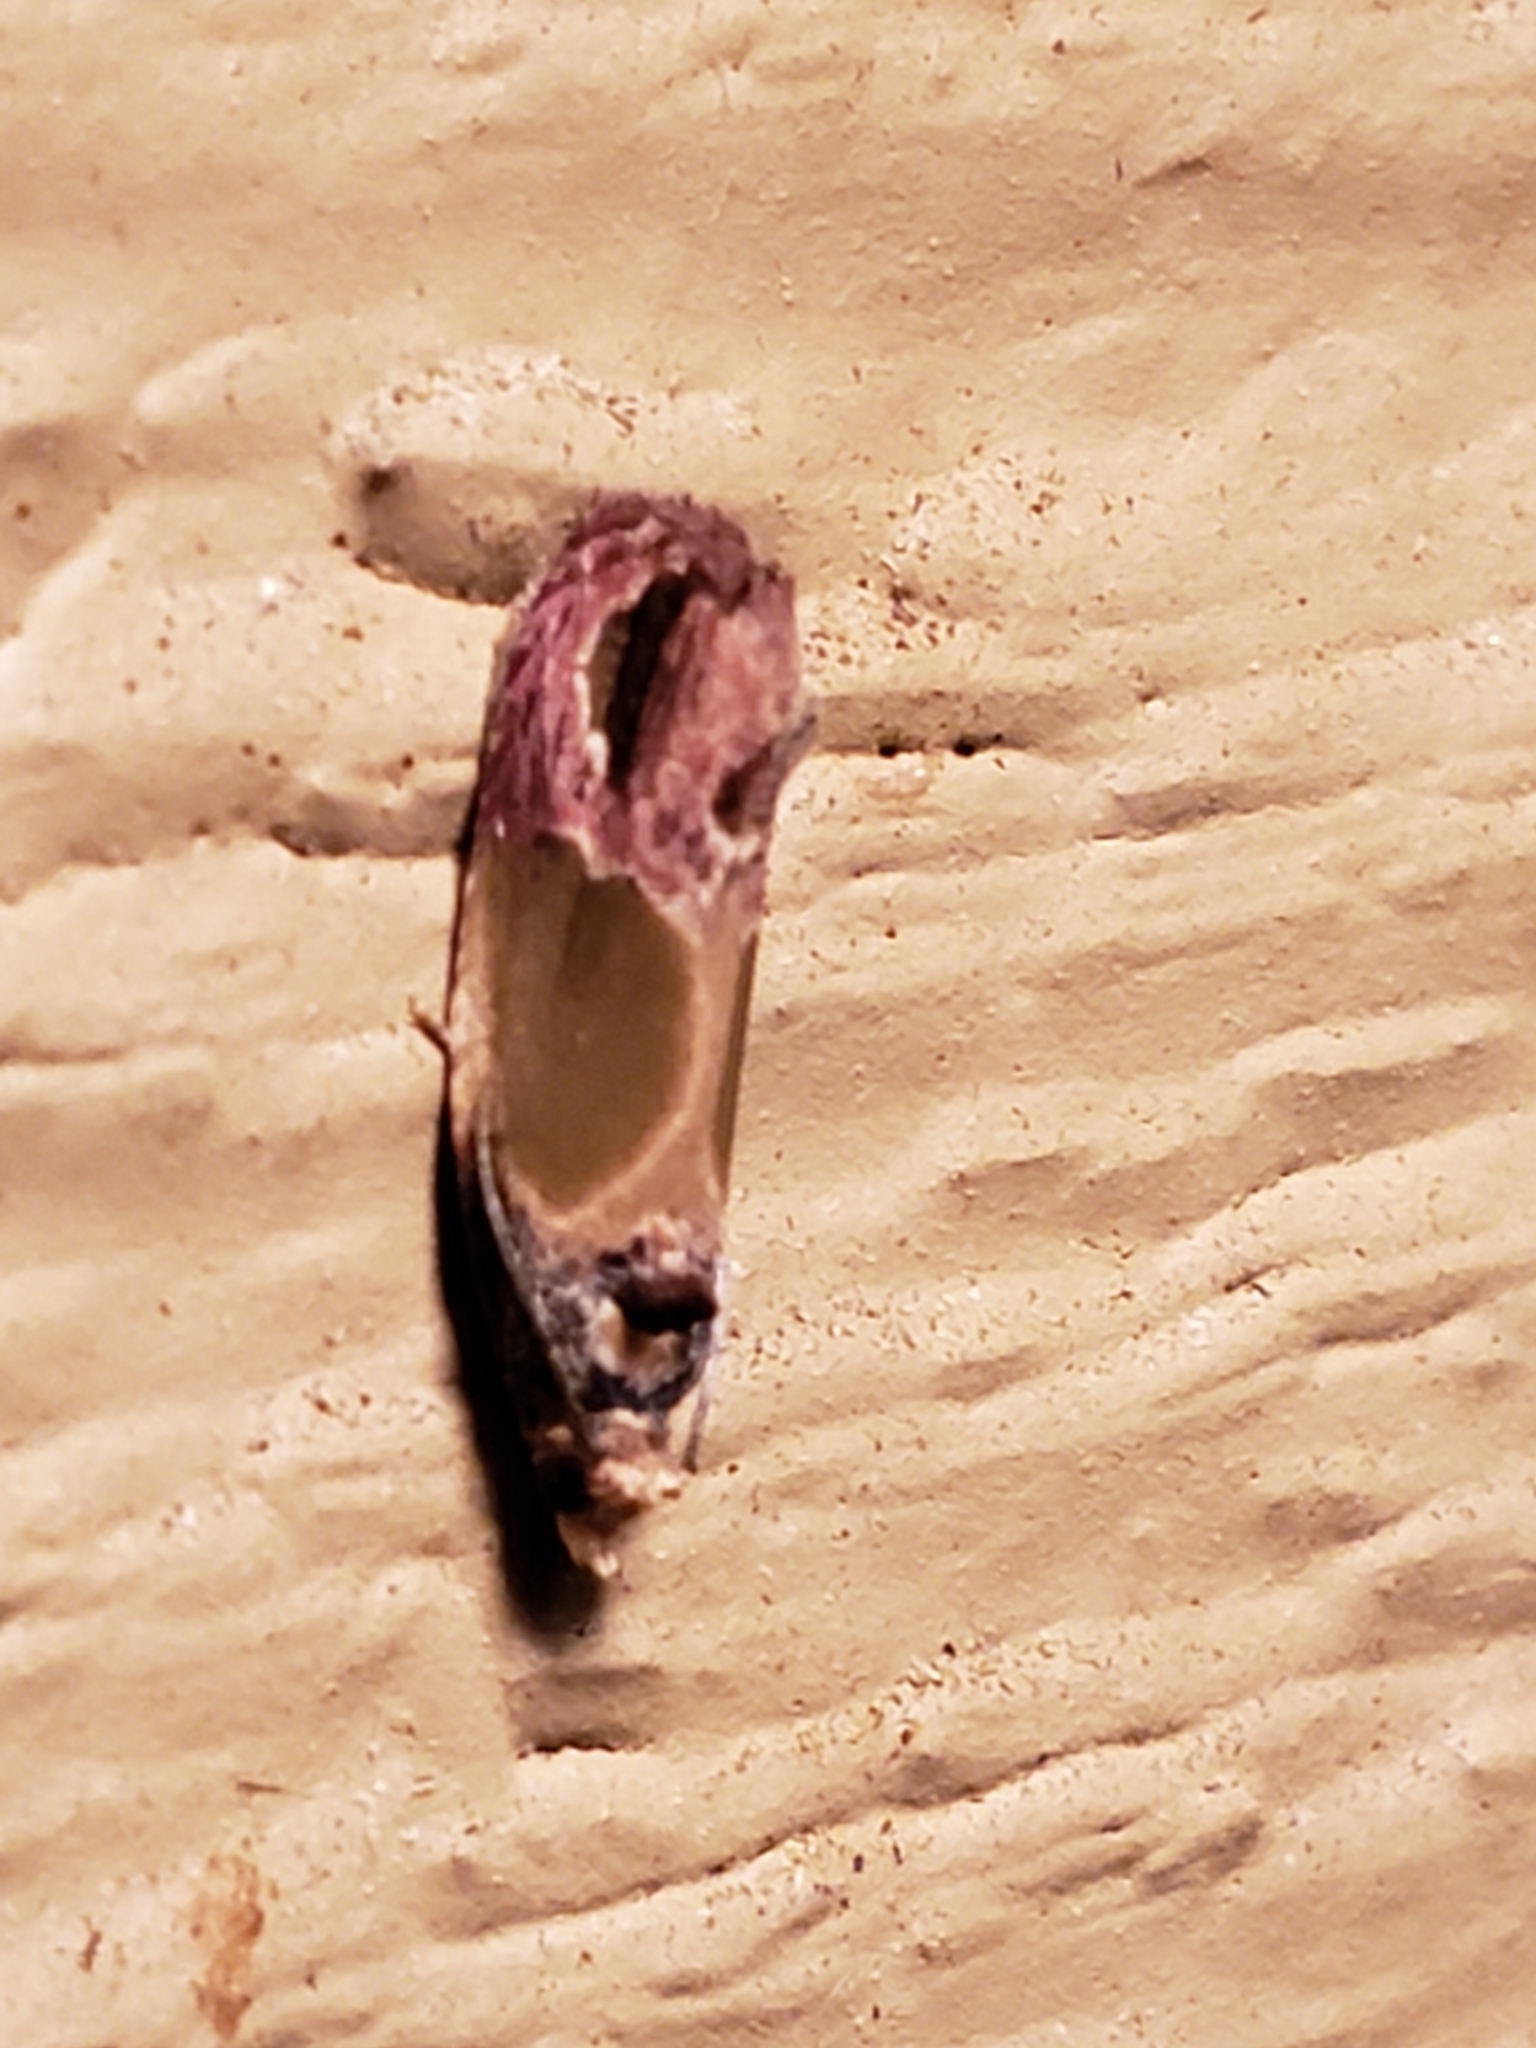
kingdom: Animalia
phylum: Arthropoda
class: Insecta
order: Lepidoptera
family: Tortricidae
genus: Eumarozia
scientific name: Eumarozia malachitana
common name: Sculptured moth
